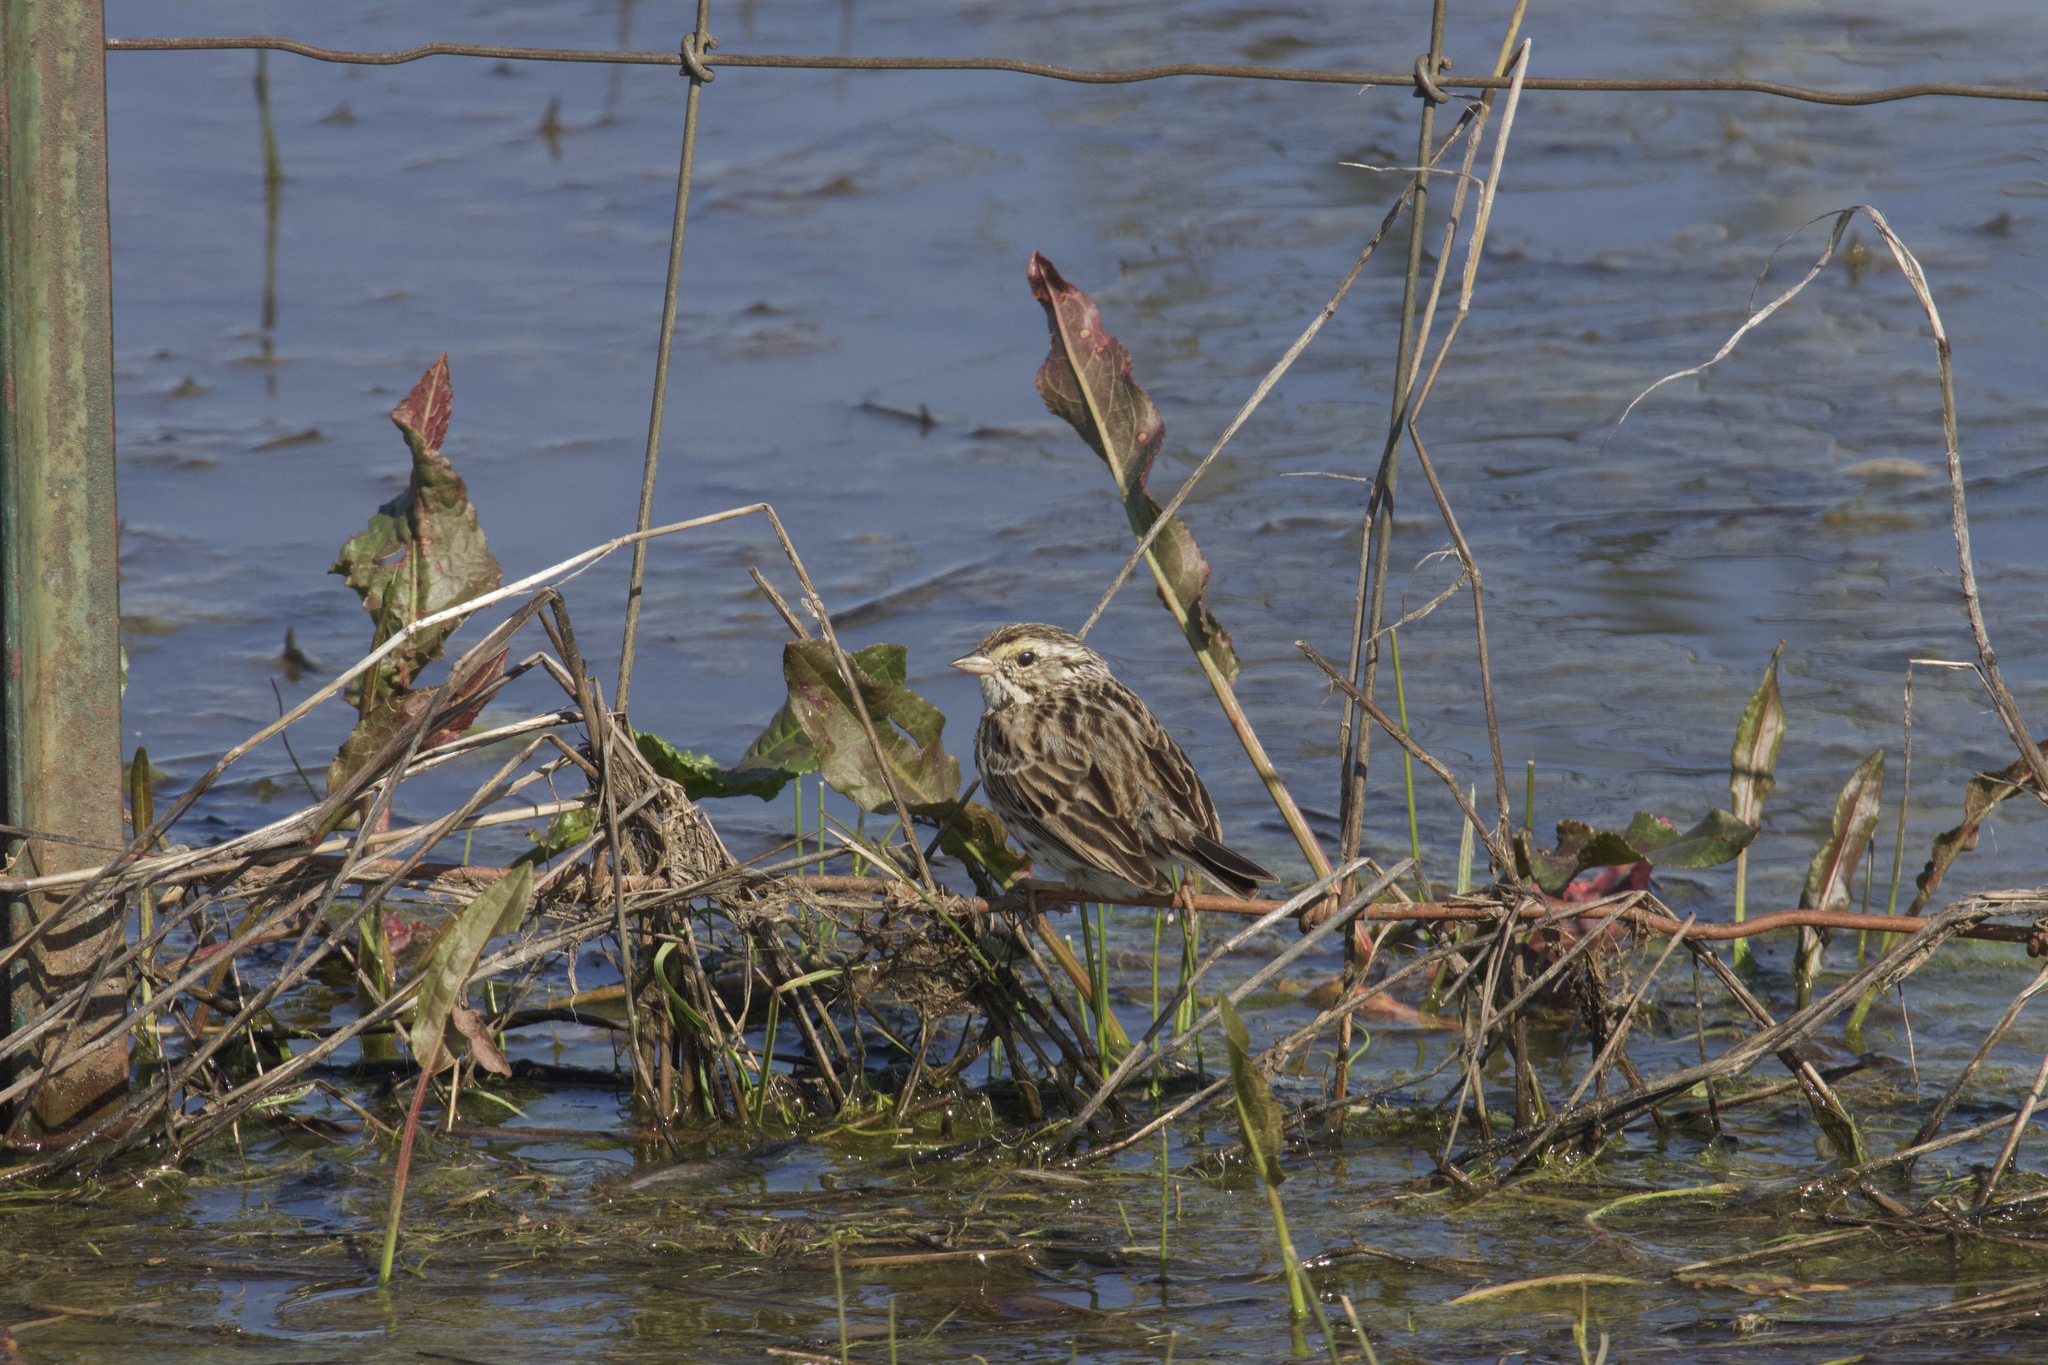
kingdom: Animalia
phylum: Chordata
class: Aves
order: Passeriformes
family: Passerellidae
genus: Passerculus
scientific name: Passerculus sandwichensis
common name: Savannah sparrow
